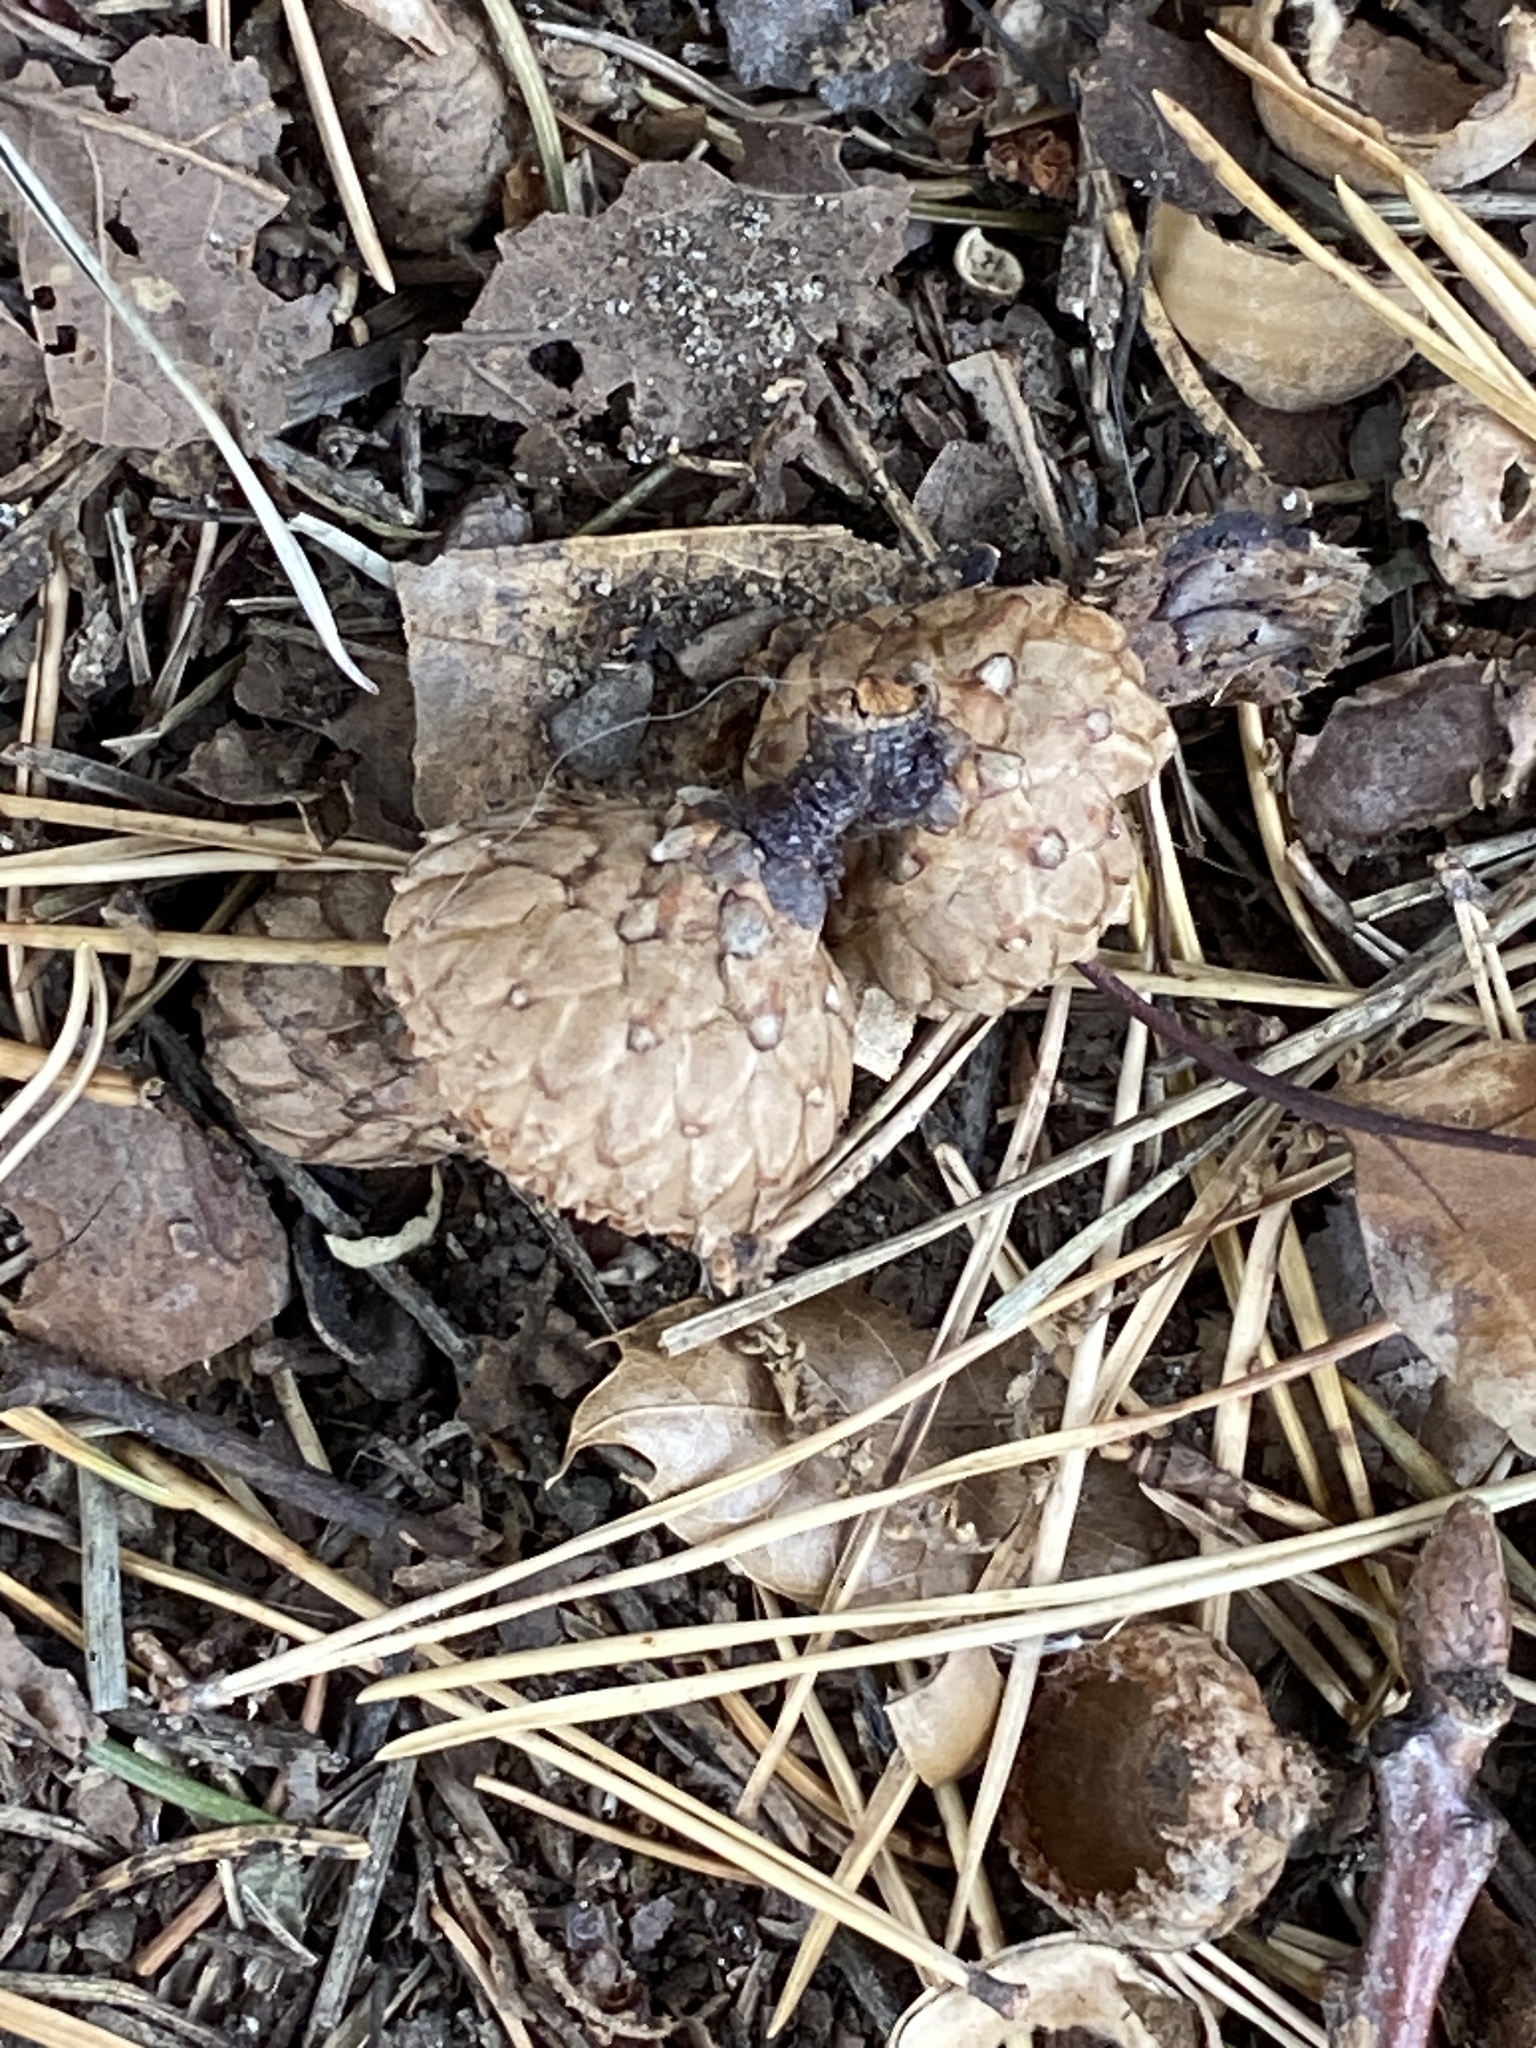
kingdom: Plantae
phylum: Tracheophyta
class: Magnoliopsida
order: Fagales
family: Fagaceae
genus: Quercus
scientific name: Quercus velutina
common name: Black oak
